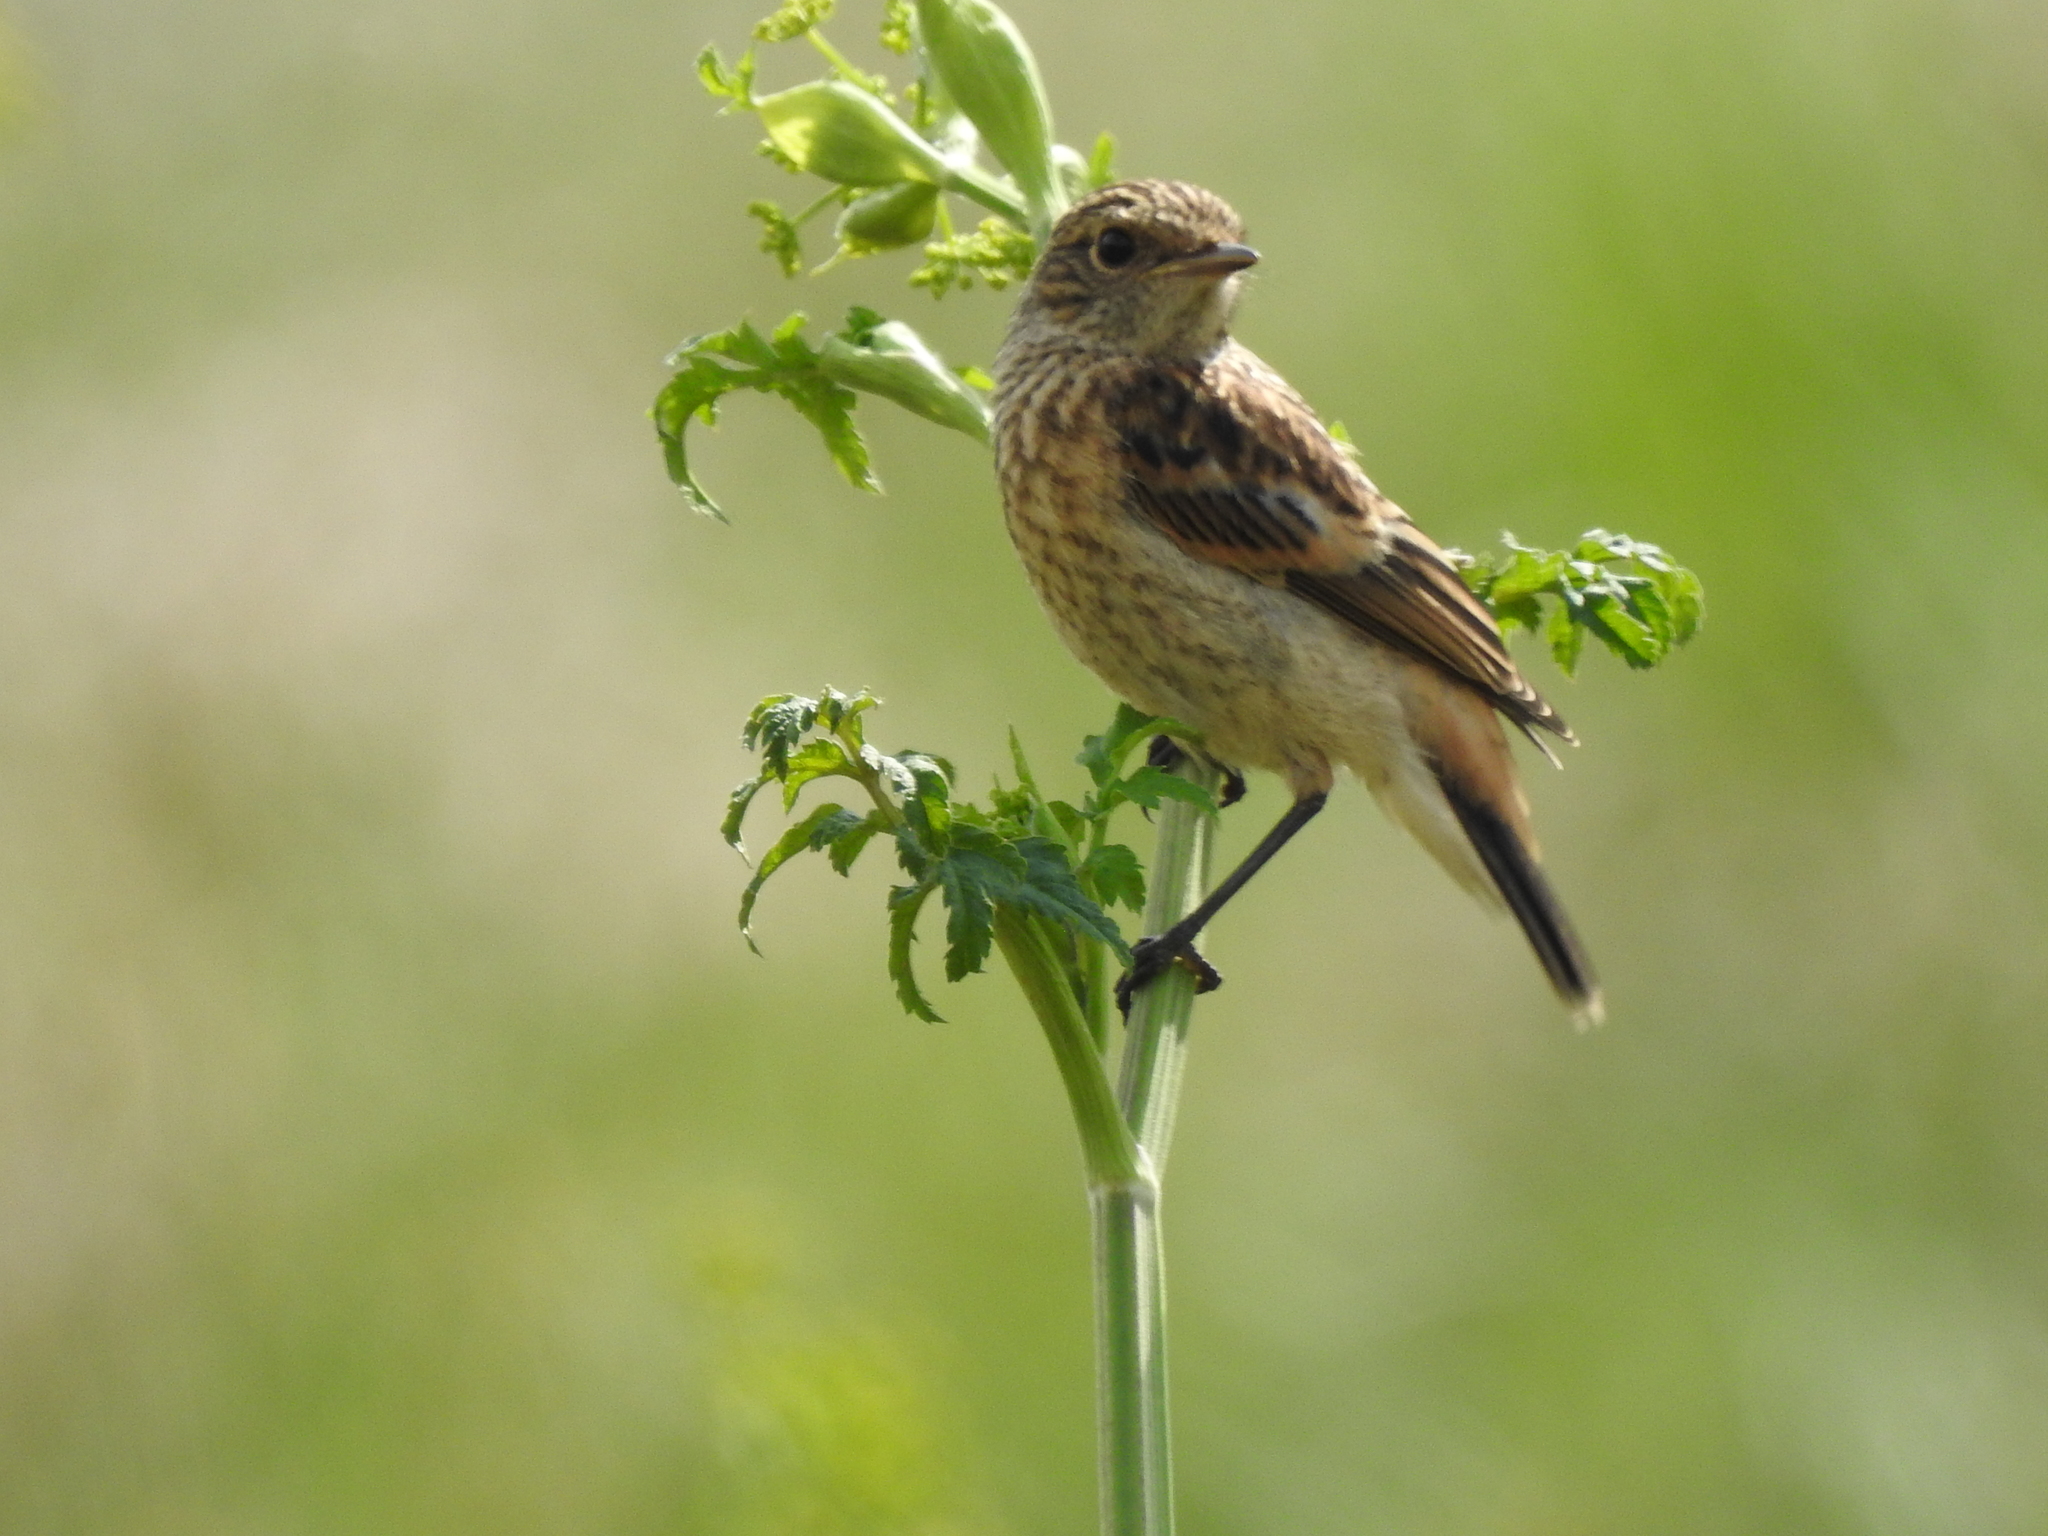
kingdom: Animalia
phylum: Chordata
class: Aves
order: Passeriformes
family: Muscicapidae
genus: Saxicola
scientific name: Saxicola maurus
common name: Siberian stonechat
